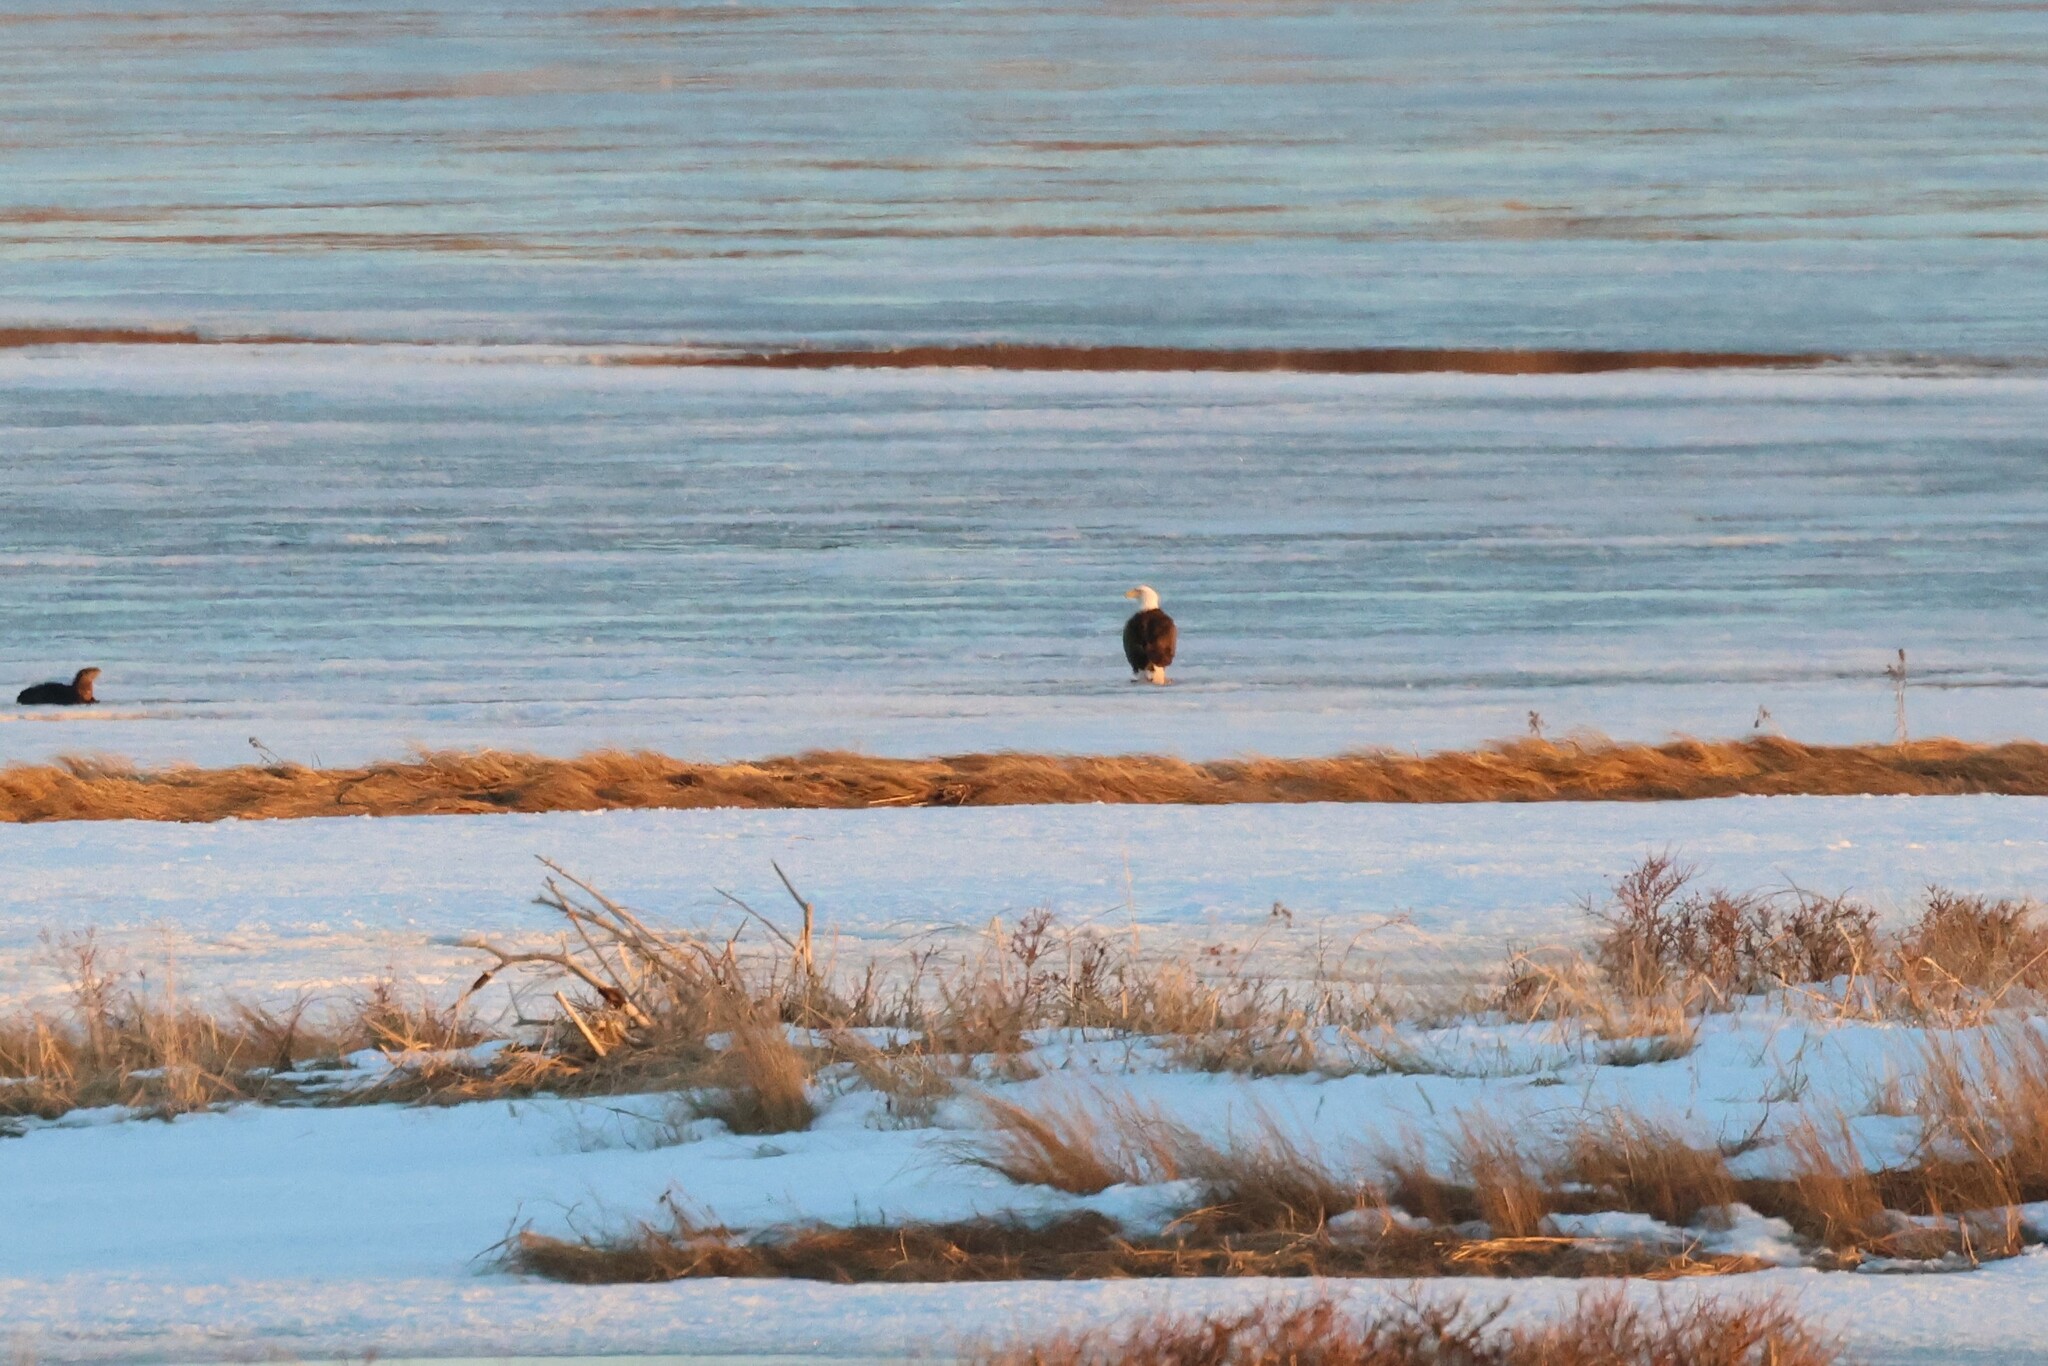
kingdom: Animalia
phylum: Chordata
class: Aves
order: Accipitriformes
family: Accipitridae
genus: Haliaeetus
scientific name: Haliaeetus leucocephalus
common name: Bald eagle
